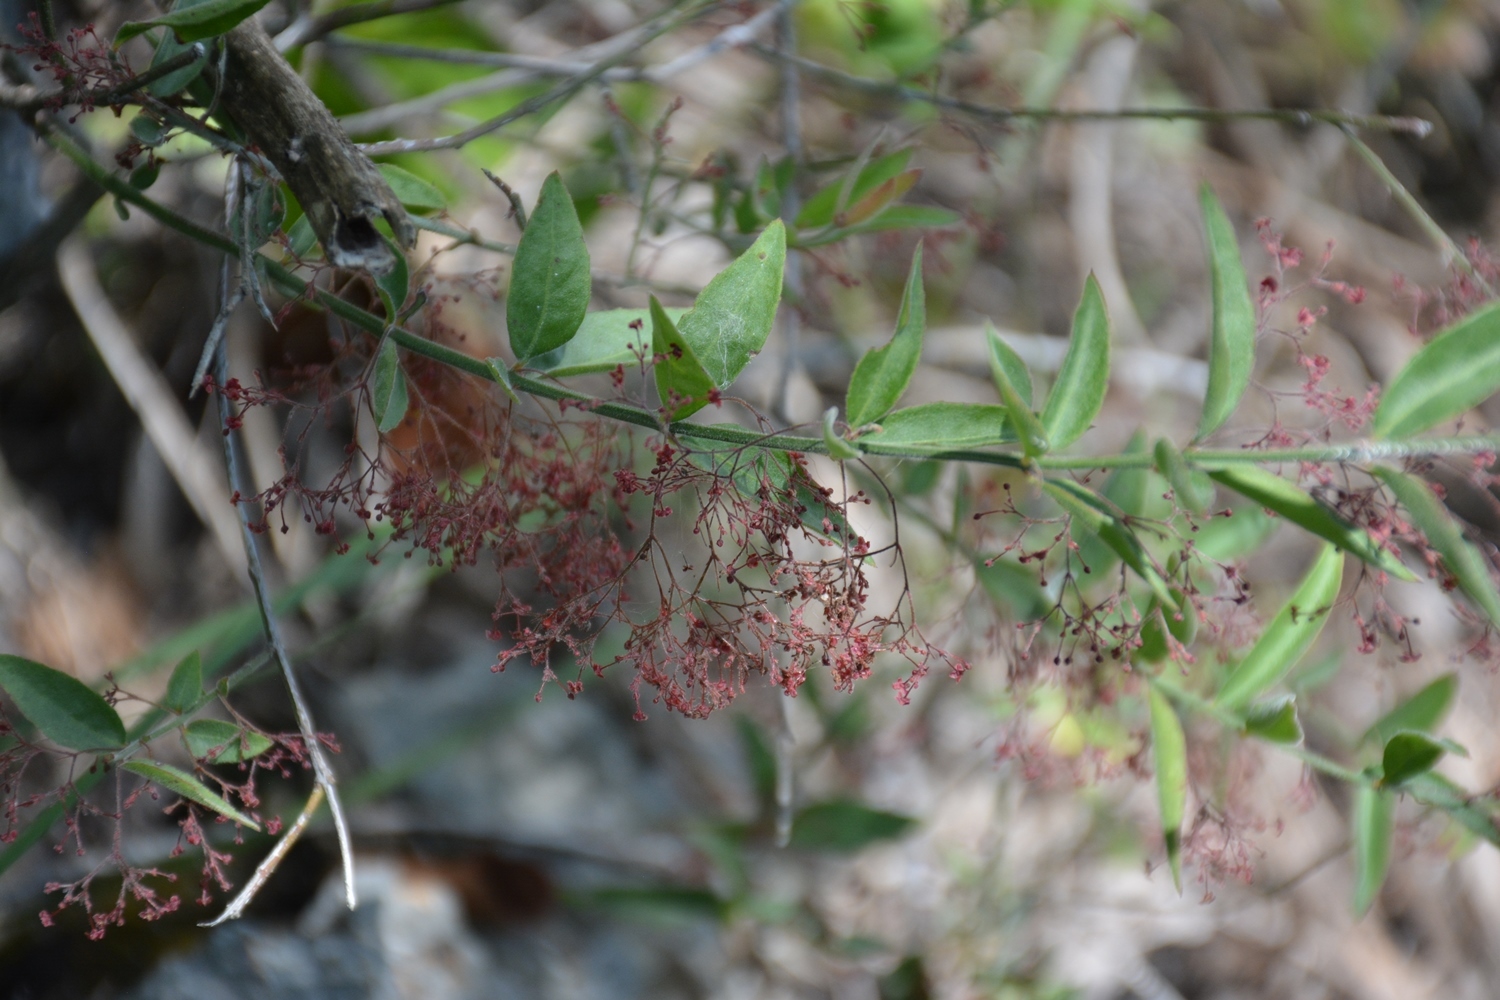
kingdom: Plantae
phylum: Tracheophyta
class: Magnoliopsida
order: Celastrales
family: Celastraceae
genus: Crossopetalum
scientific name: Crossopetalum uragoga
